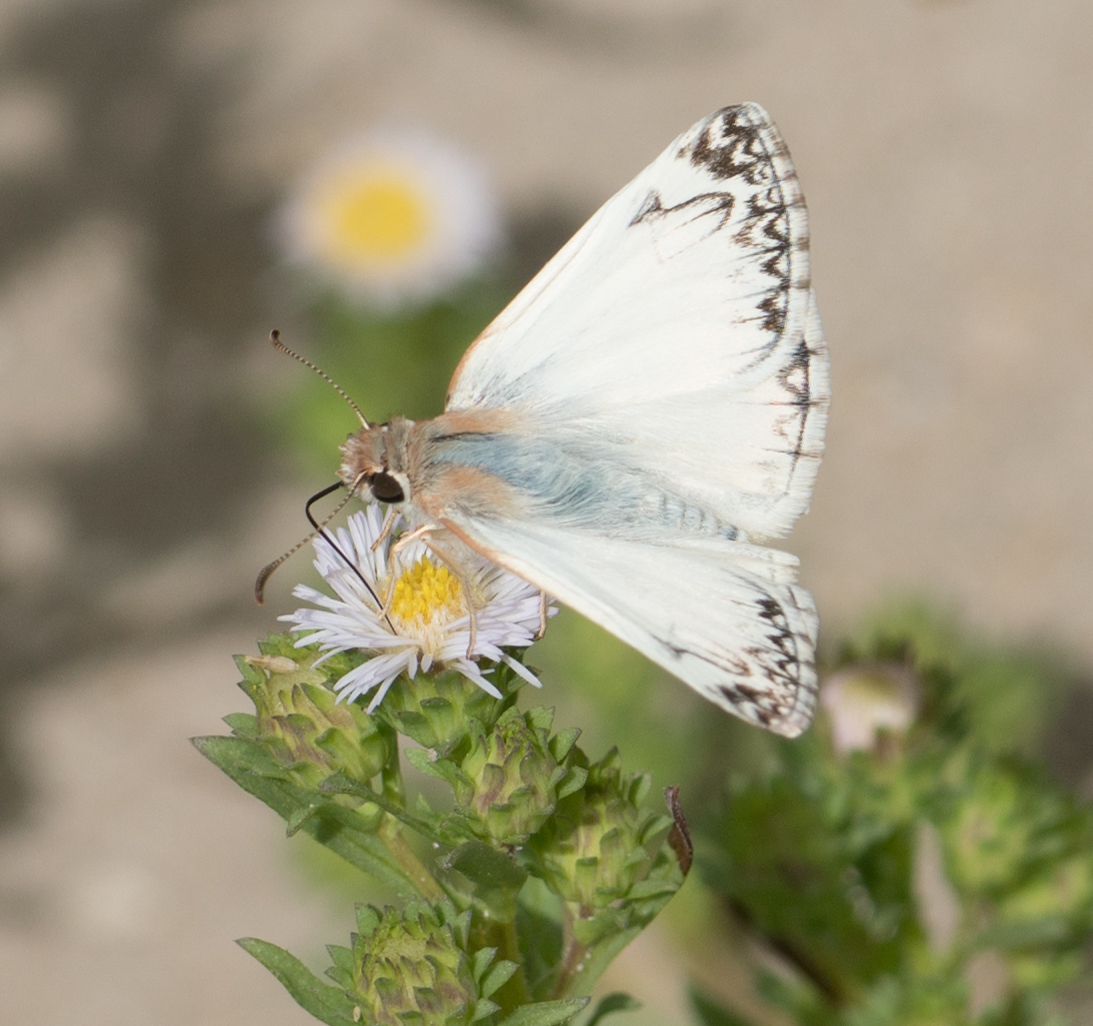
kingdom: Animalia
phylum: Arthropoda
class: Insecta
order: Lepidoptera
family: Hesperiidae
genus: Heliopetes
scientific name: Heliopetes ericetorum
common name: Northern white-skipper
